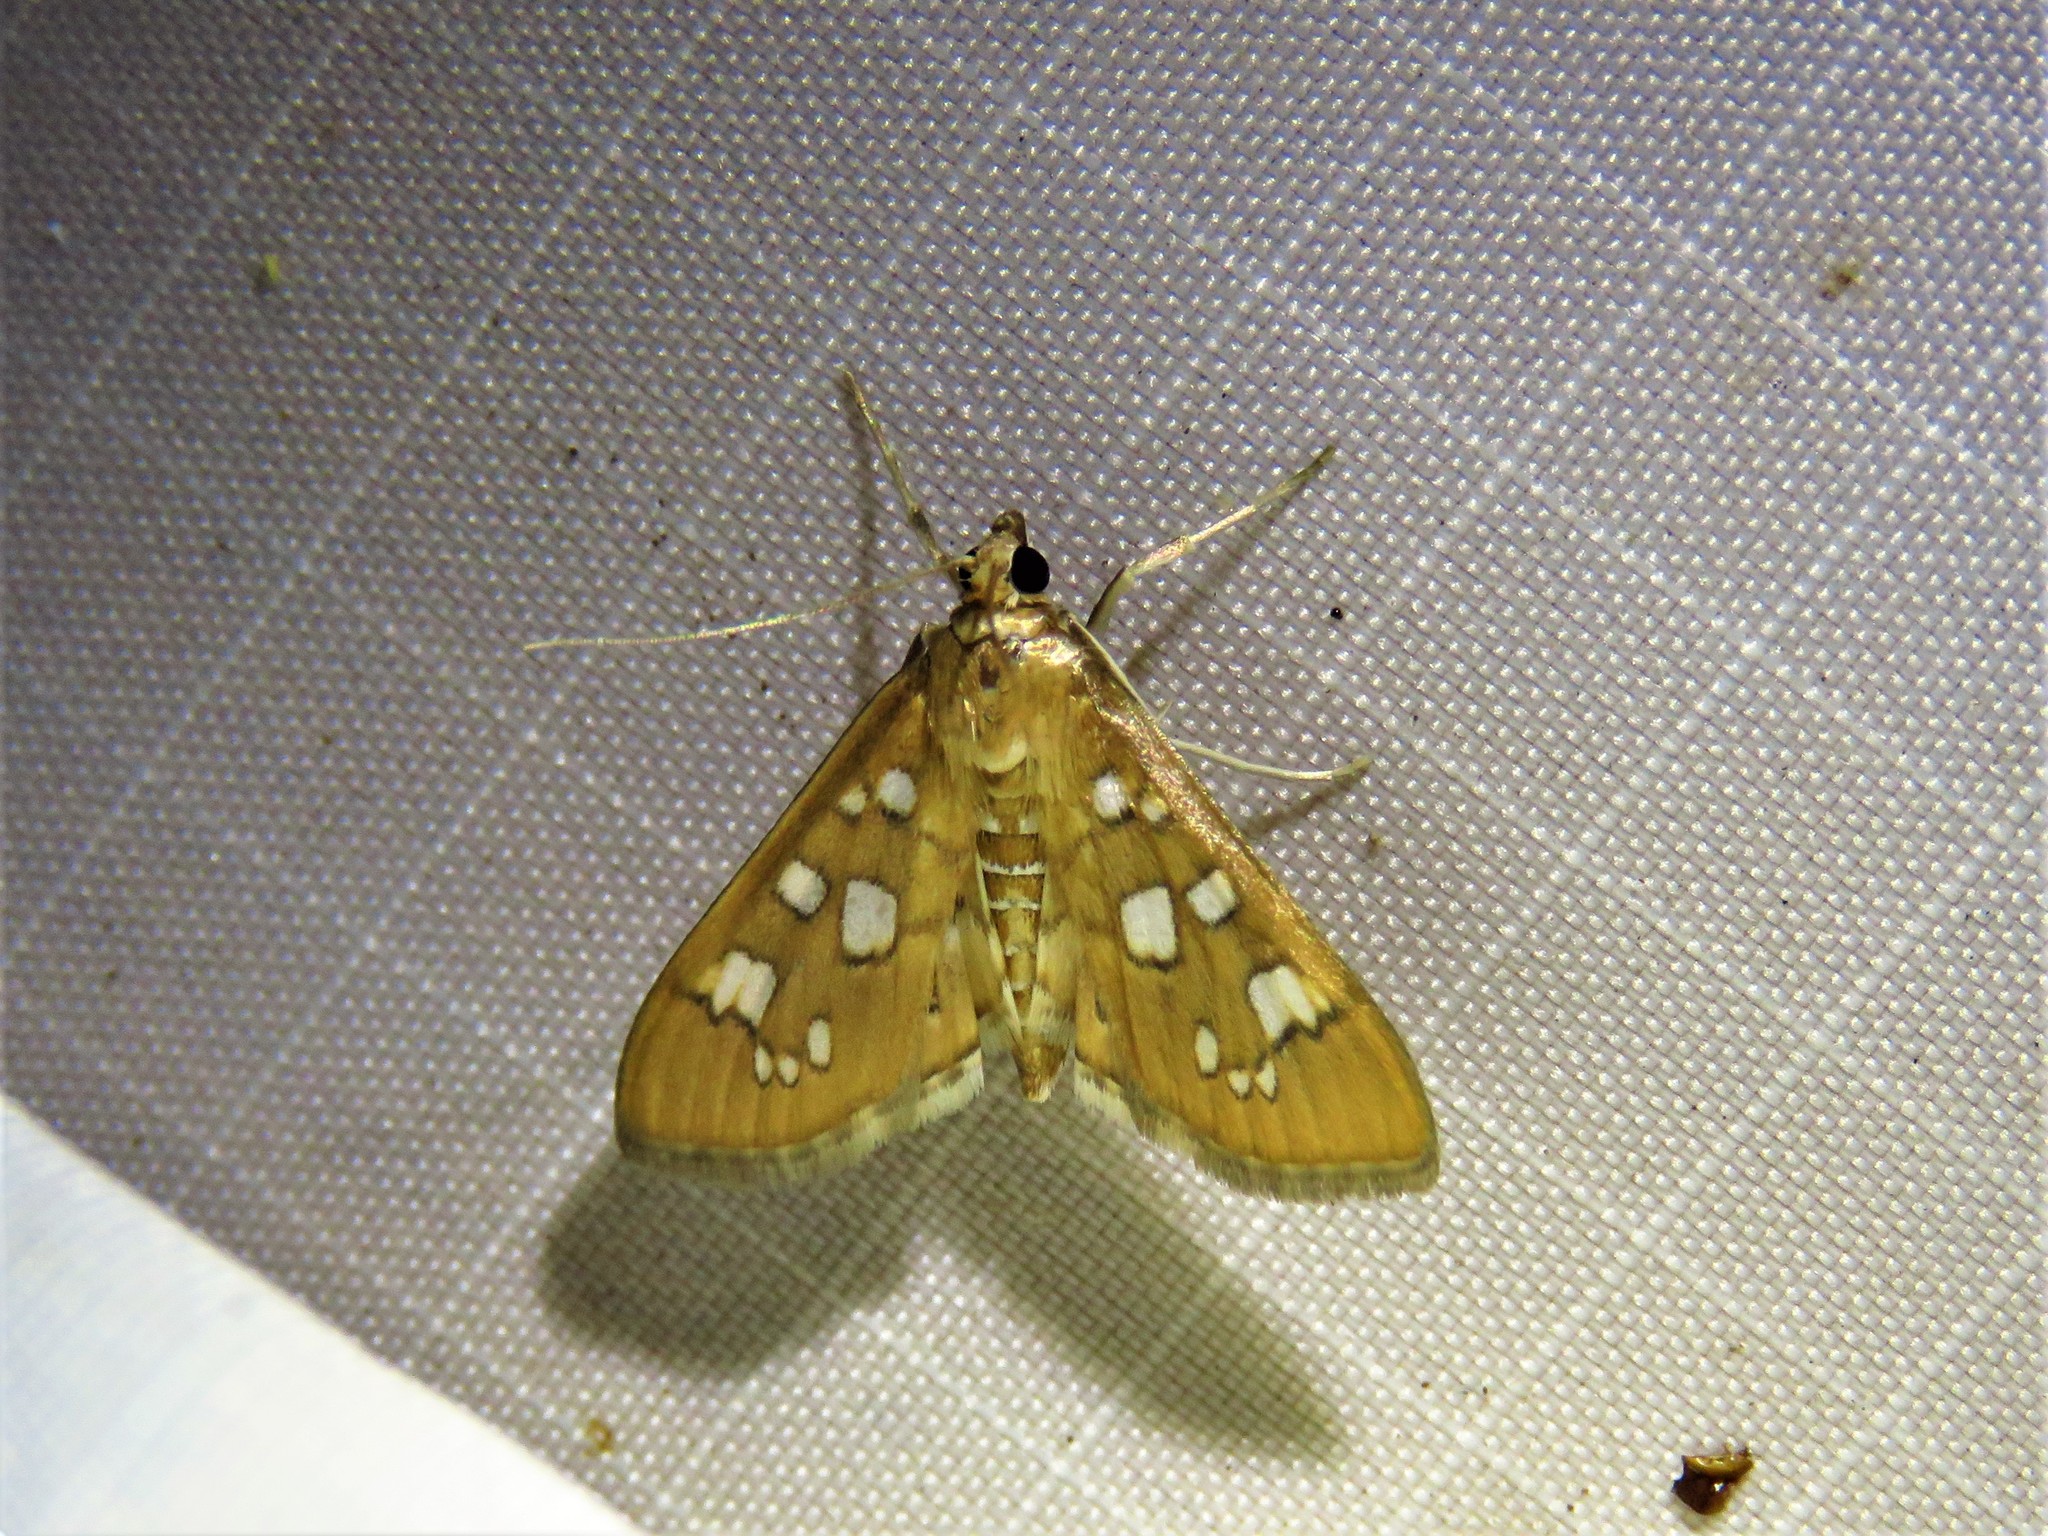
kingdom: Animalia
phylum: Arthropoda
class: Insecta
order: Lepidoptera
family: Crambidae
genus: Samea
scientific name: Samea baccatalis
